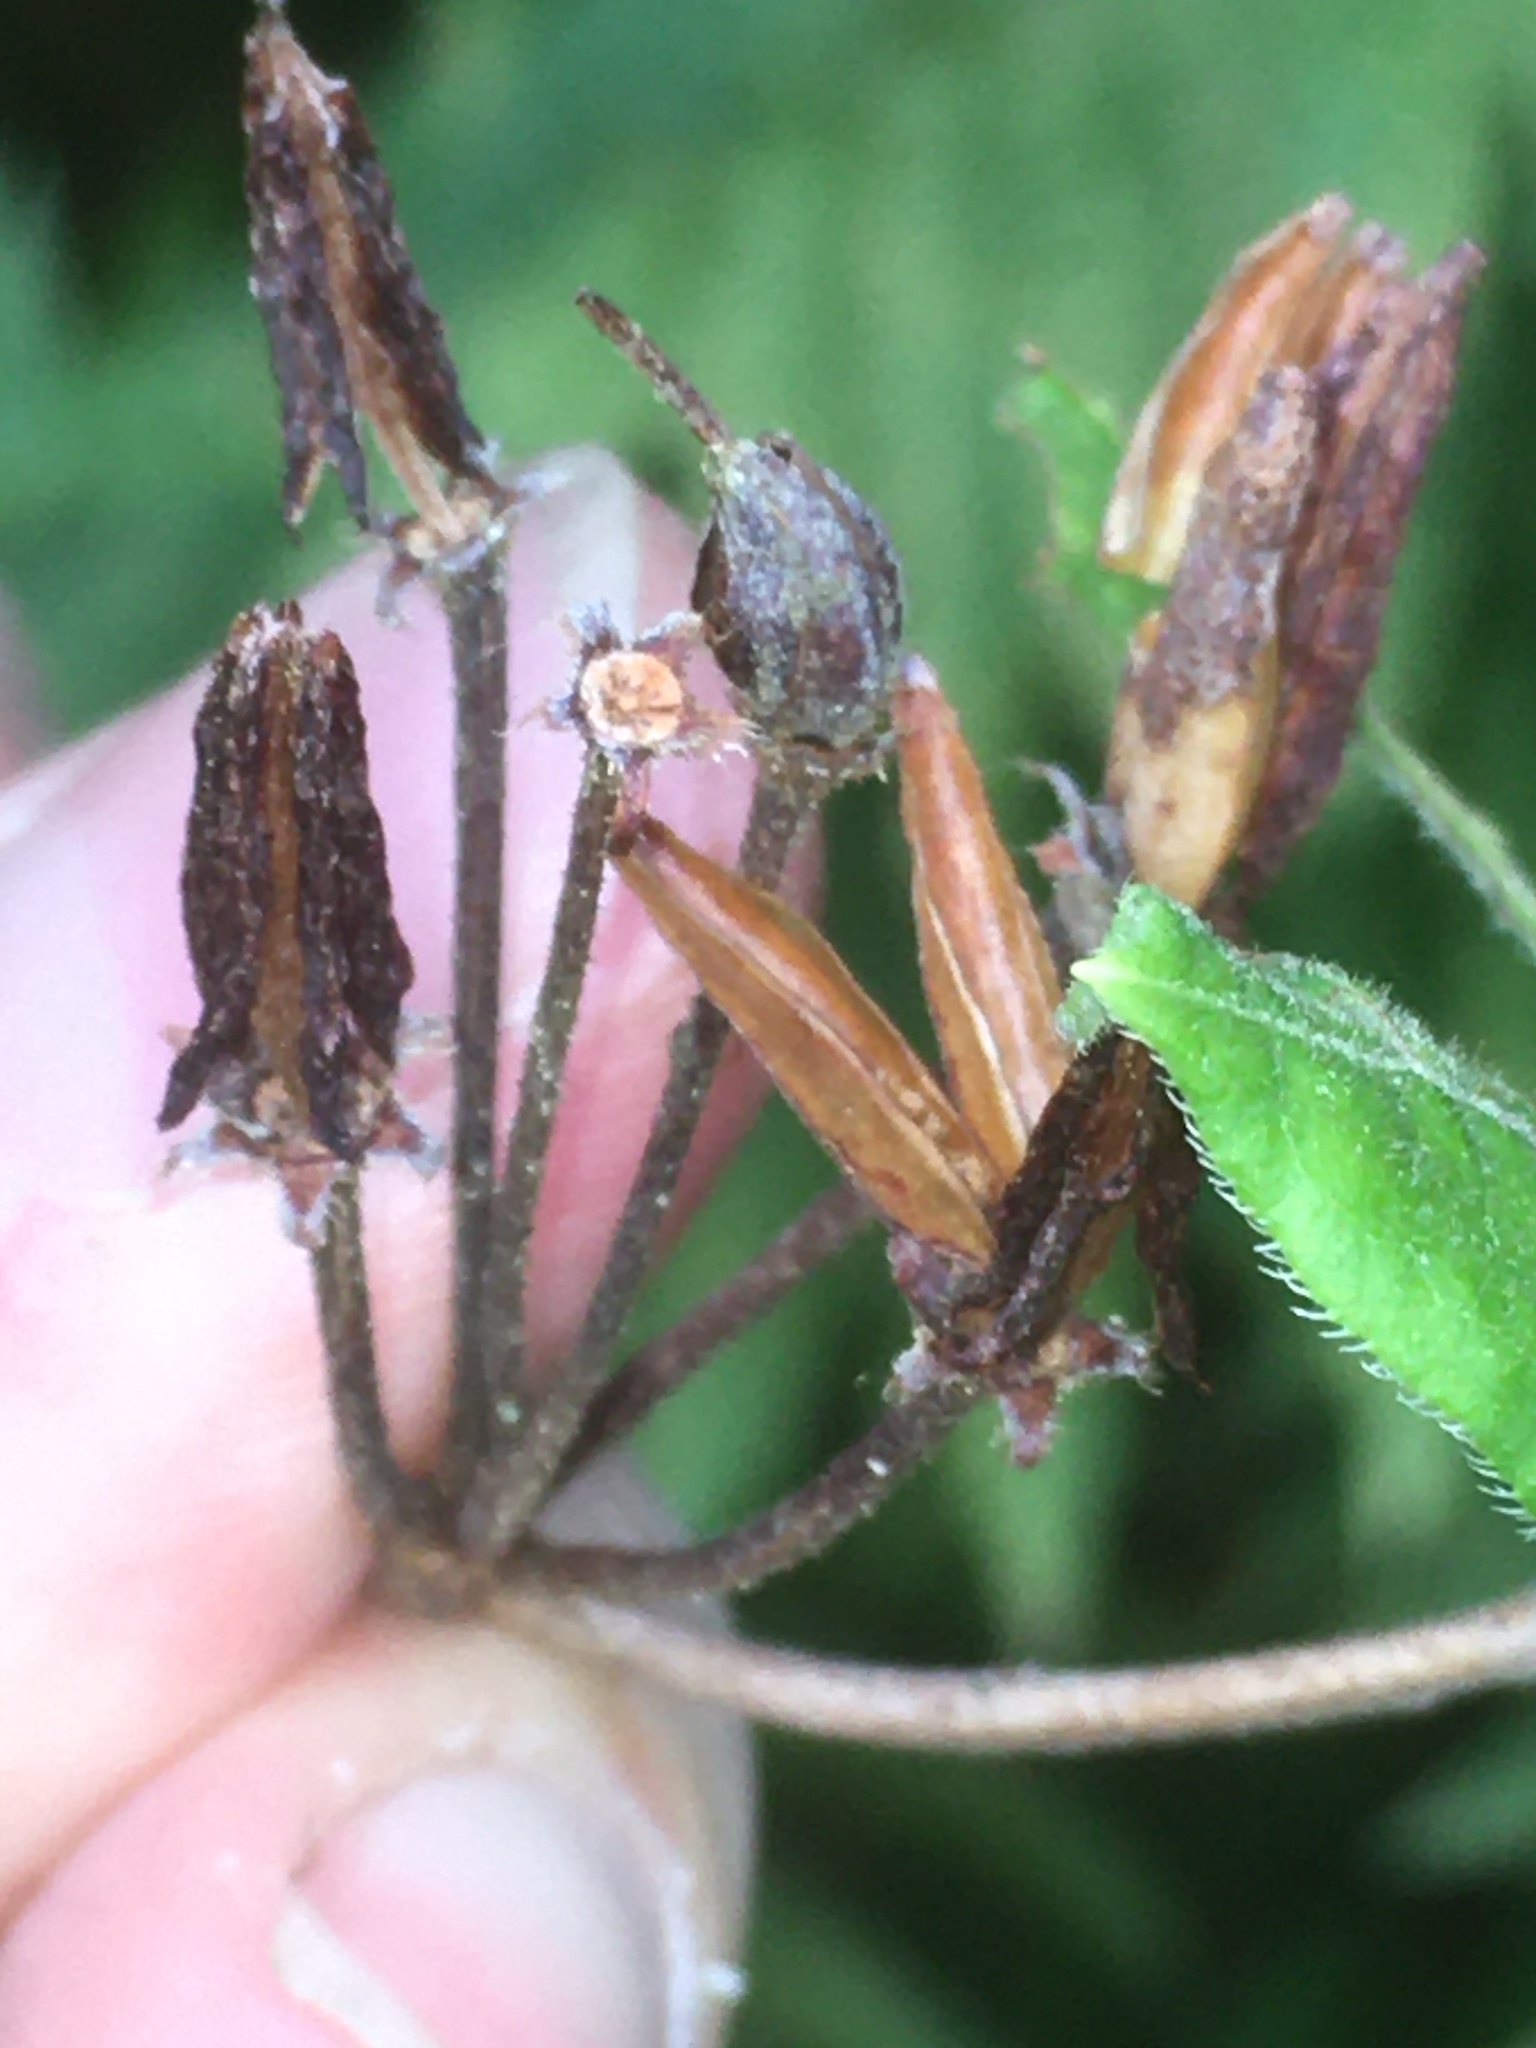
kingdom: Plantae
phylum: Tracheophyta
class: Magnoliopsida
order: Ericales
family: Ericaceae
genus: Rhododendron
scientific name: Rhododendron roseum
